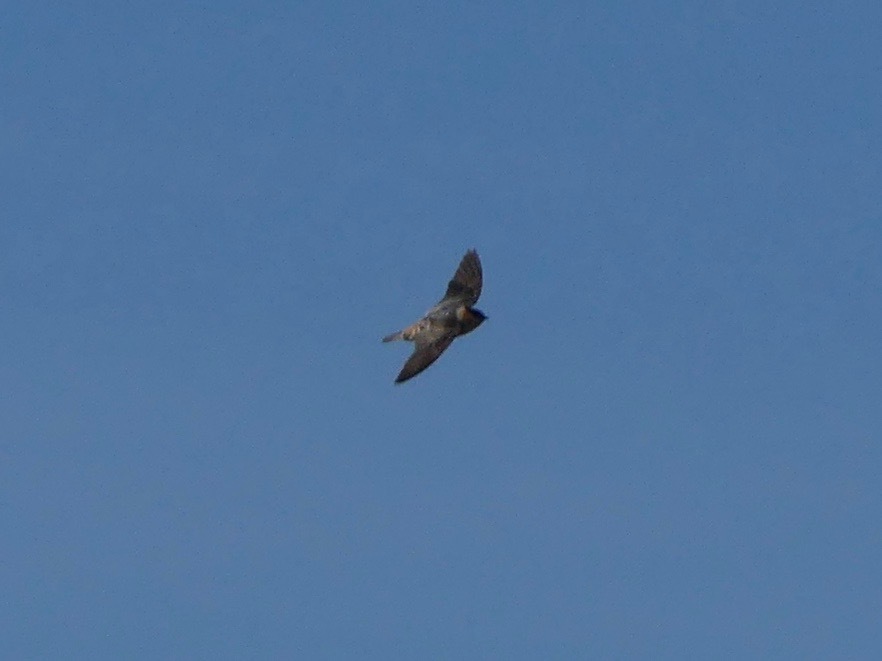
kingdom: Animalia
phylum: Chordata
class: Aves
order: Passeriformes
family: Hirundinidae
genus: Petrochelidon
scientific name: Petrochelidon fulva
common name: Cave swallow
